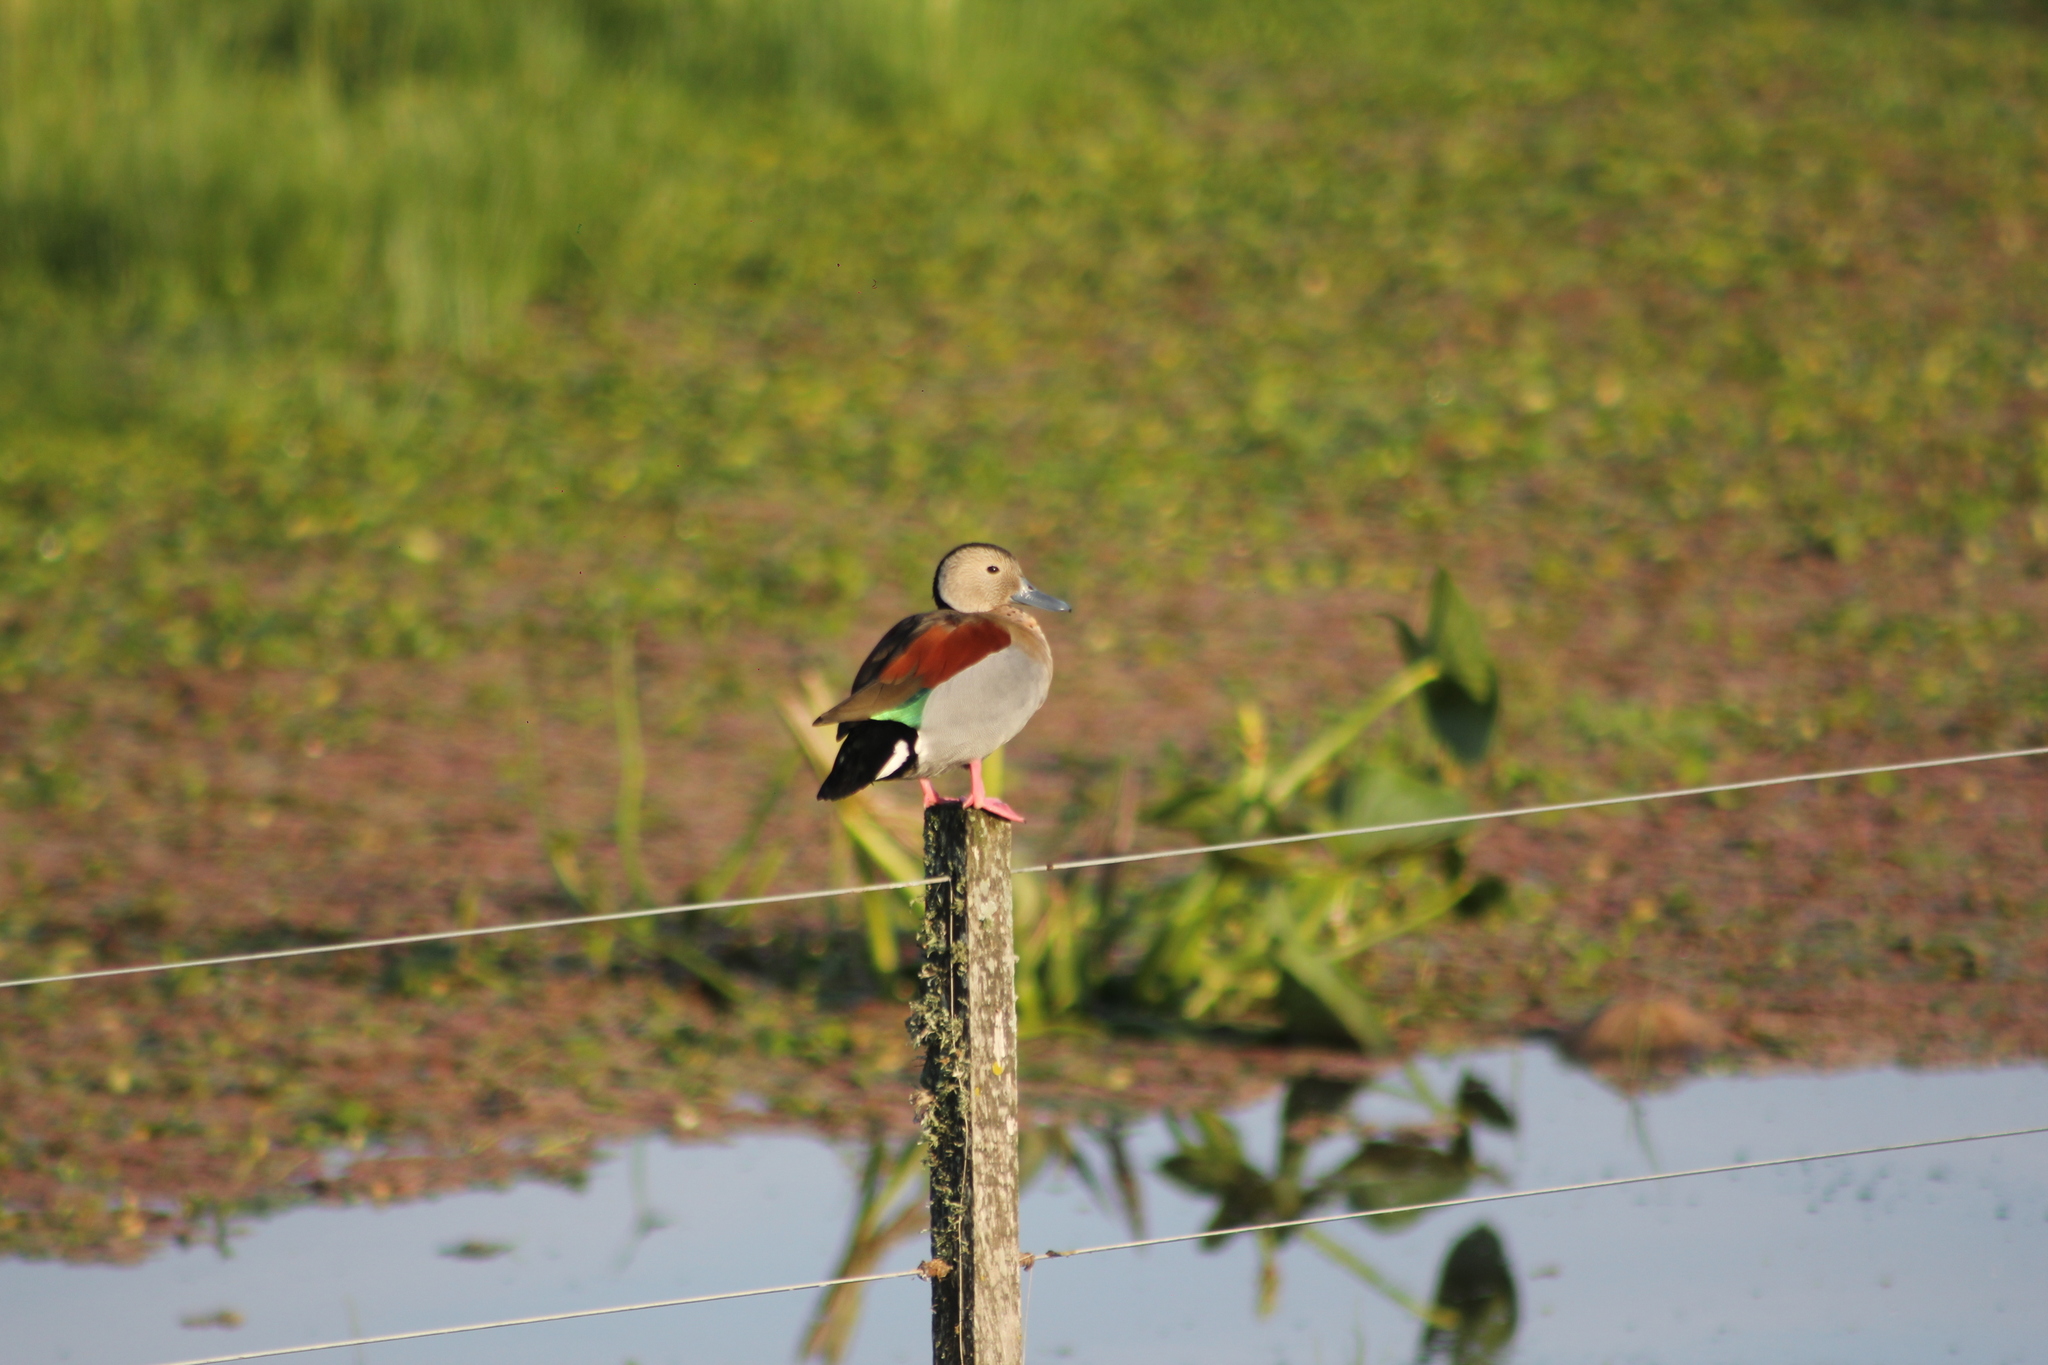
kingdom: Animalia
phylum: Chordata
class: Aves
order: Anseriformes
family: Anatidae
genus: Callonetta
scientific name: Callonetta leucophrys
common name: Ringed teal
